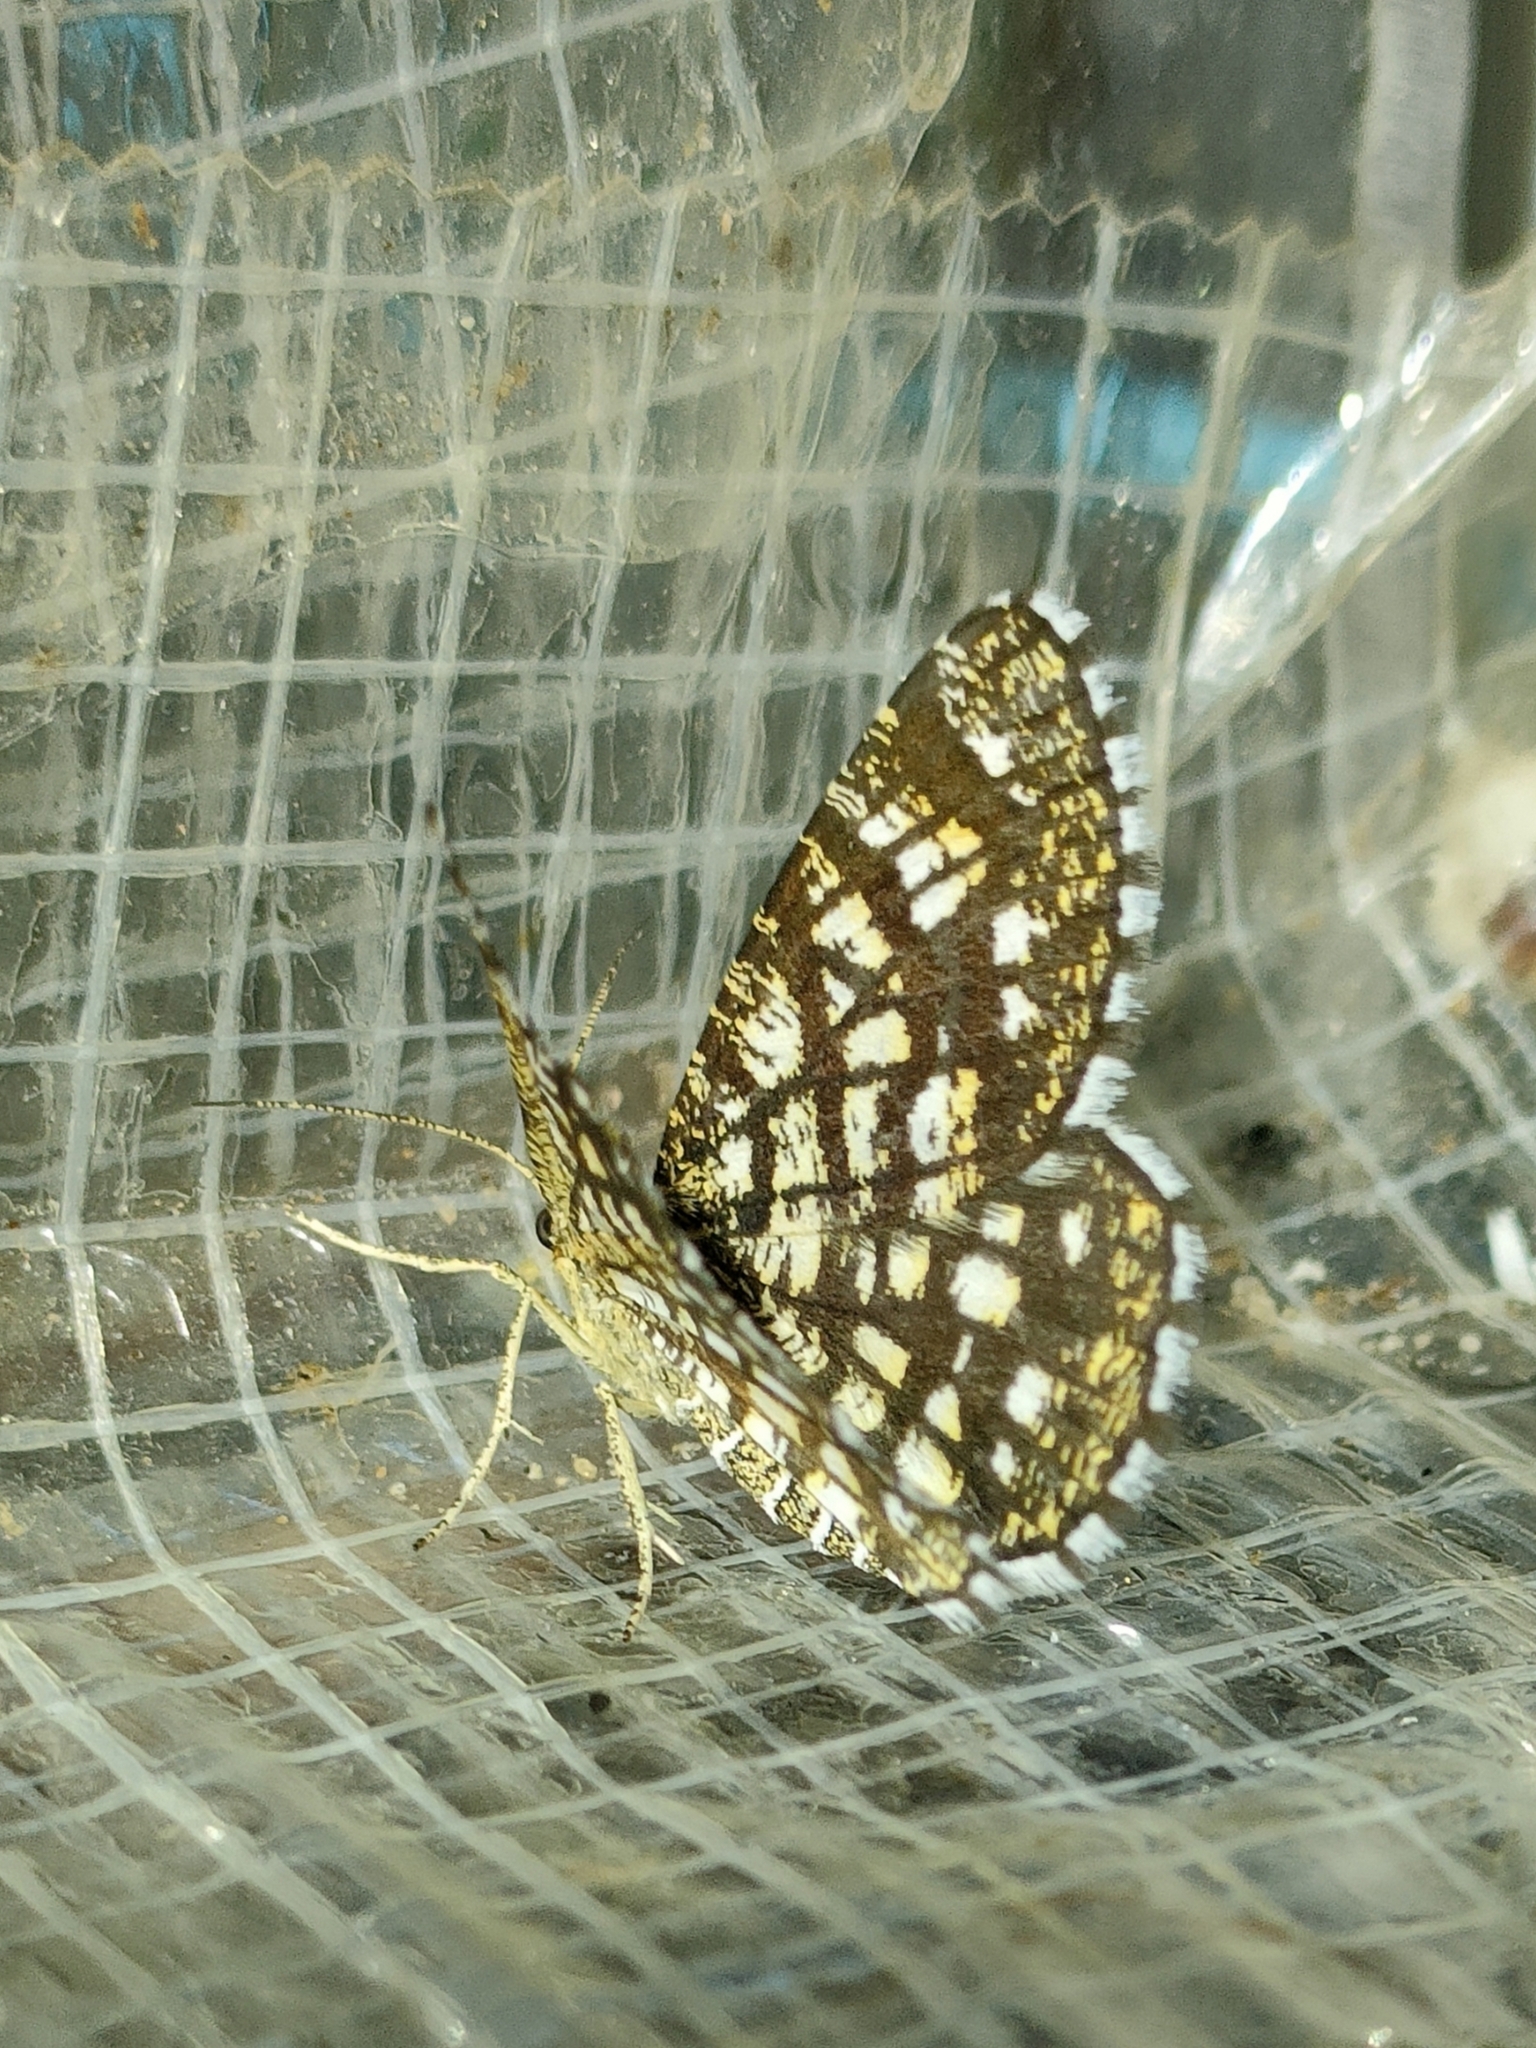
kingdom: Animalia
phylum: Arthropoda
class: Insecta
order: Lepidoptera
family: Geometridae
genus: Chiasmia
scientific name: Chiasmia clathrata
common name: Latticed heath
